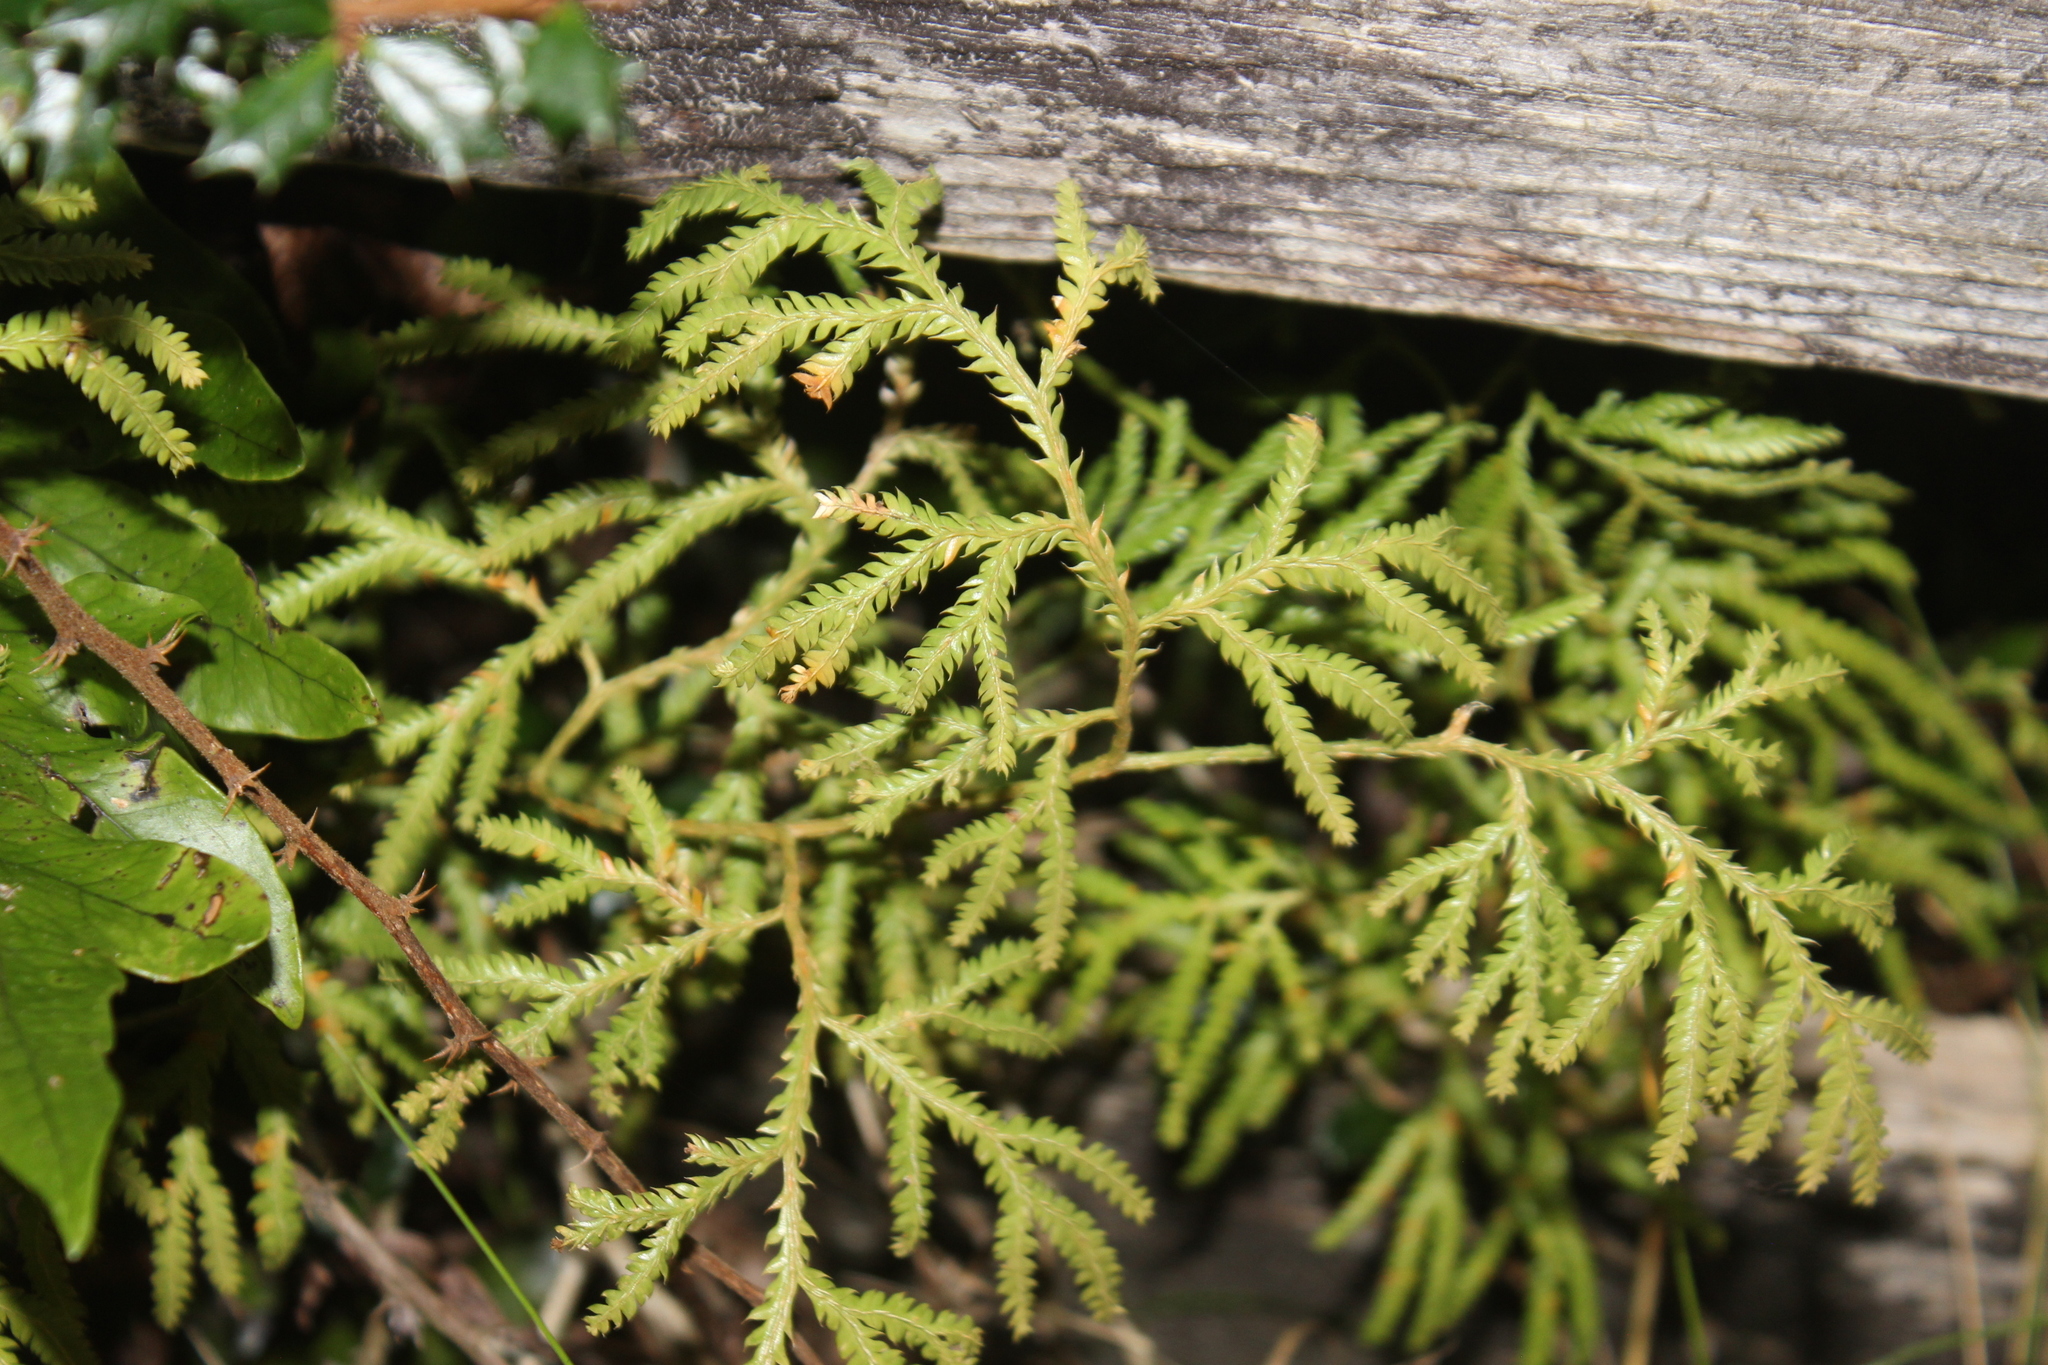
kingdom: Plantae
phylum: Tracheophyta
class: Lycopodiopsida
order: Lycopodiales
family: Lycopodiaceae
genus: Lycopodium
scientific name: Lycopodium volubile
